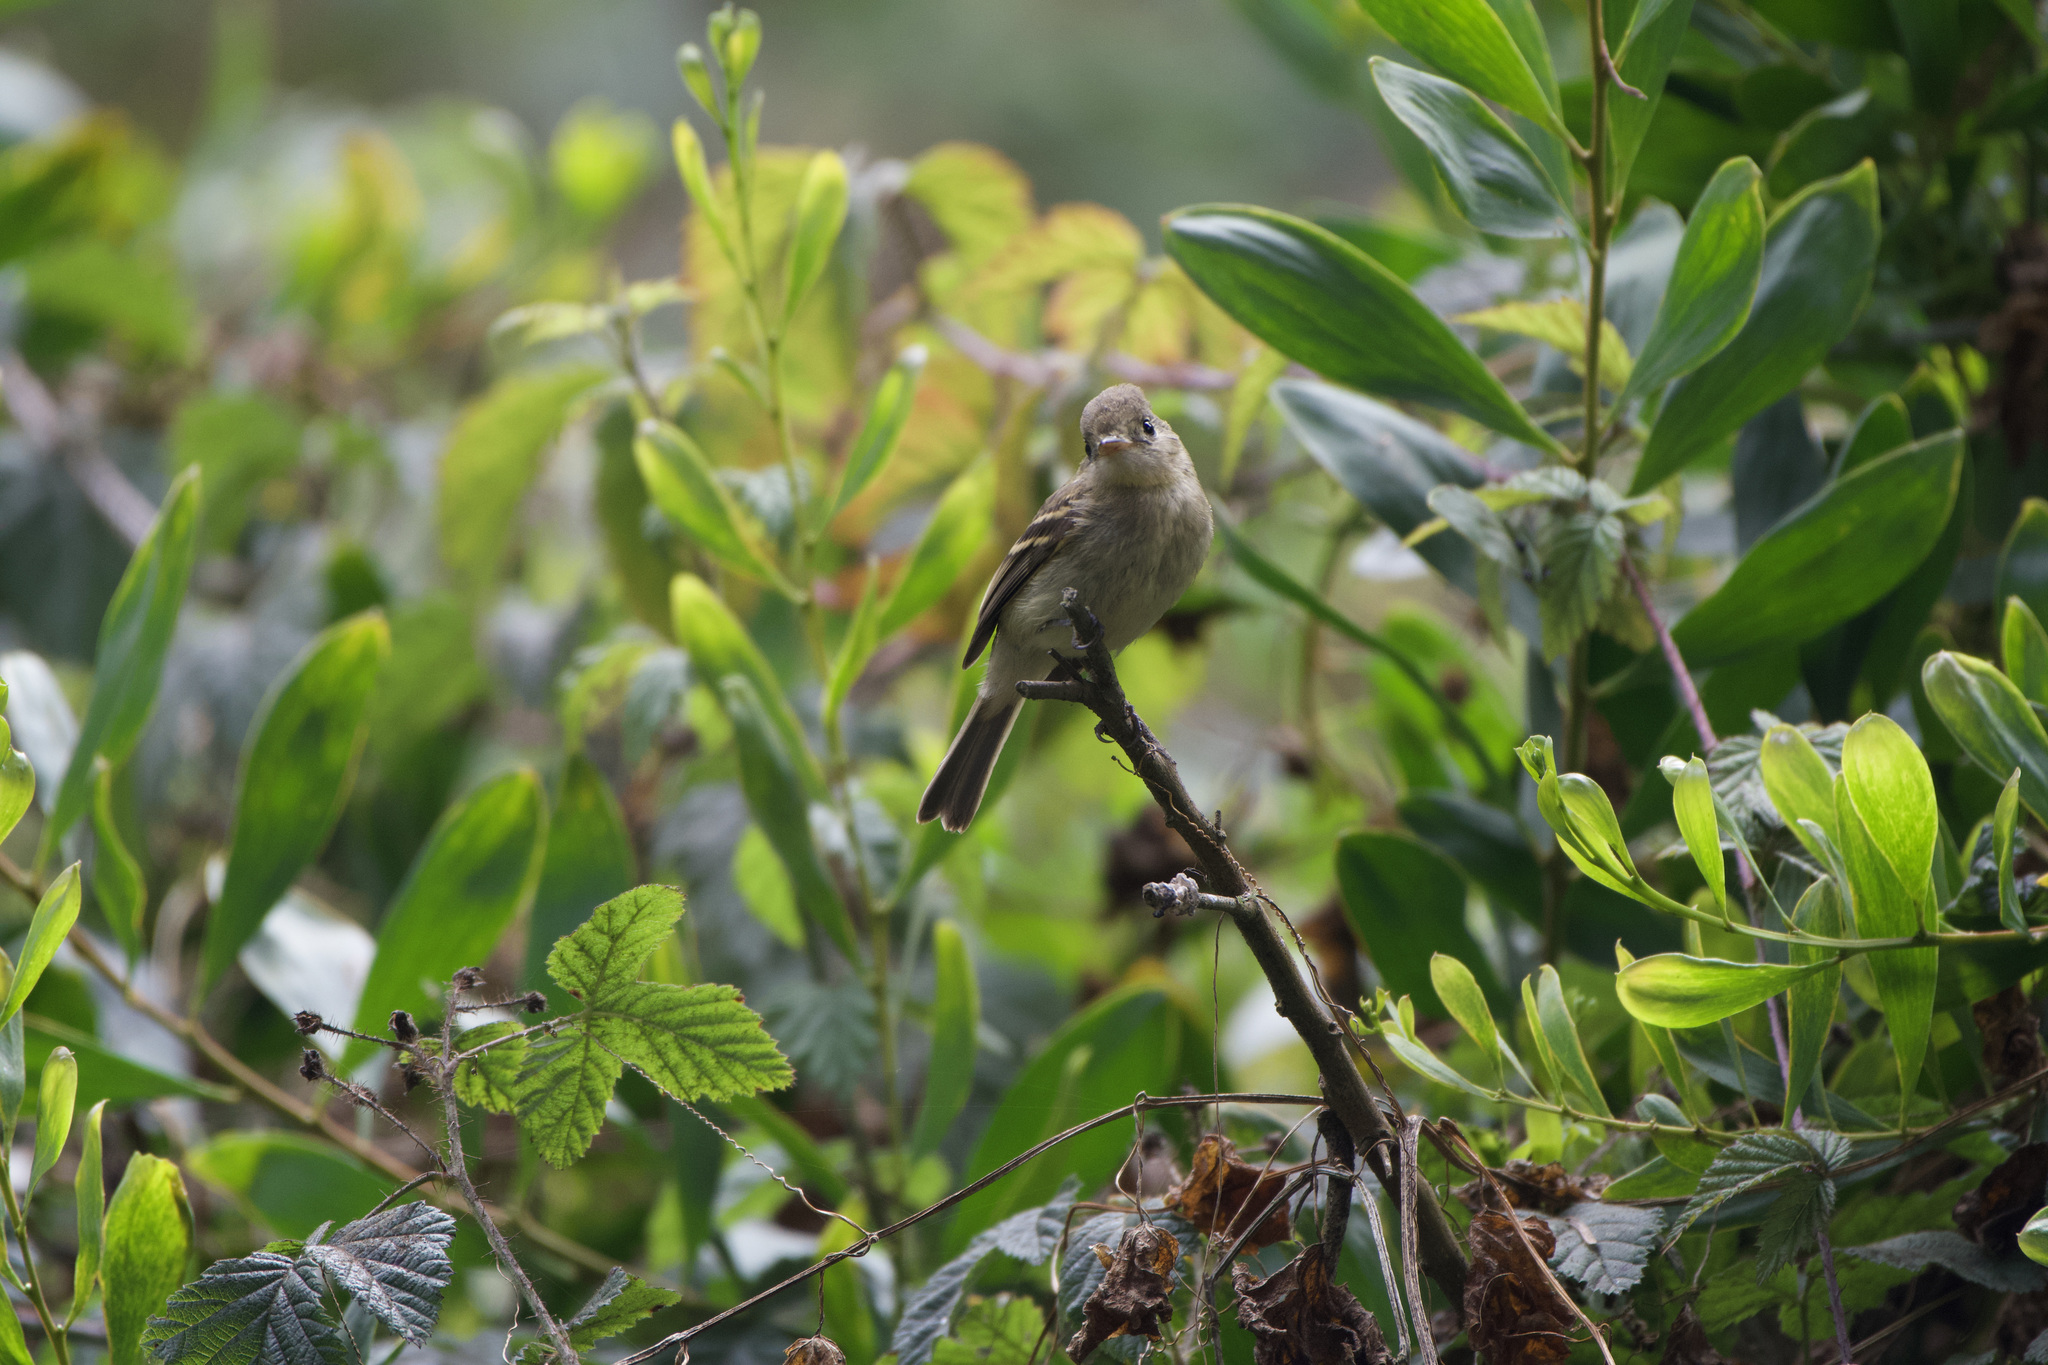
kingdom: Animalia
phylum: Chordata
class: Aves
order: Passeriformes
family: Tyrannidae
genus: Empidonax
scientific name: Empidonax difficilis
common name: Pacific-slope flycatcher
